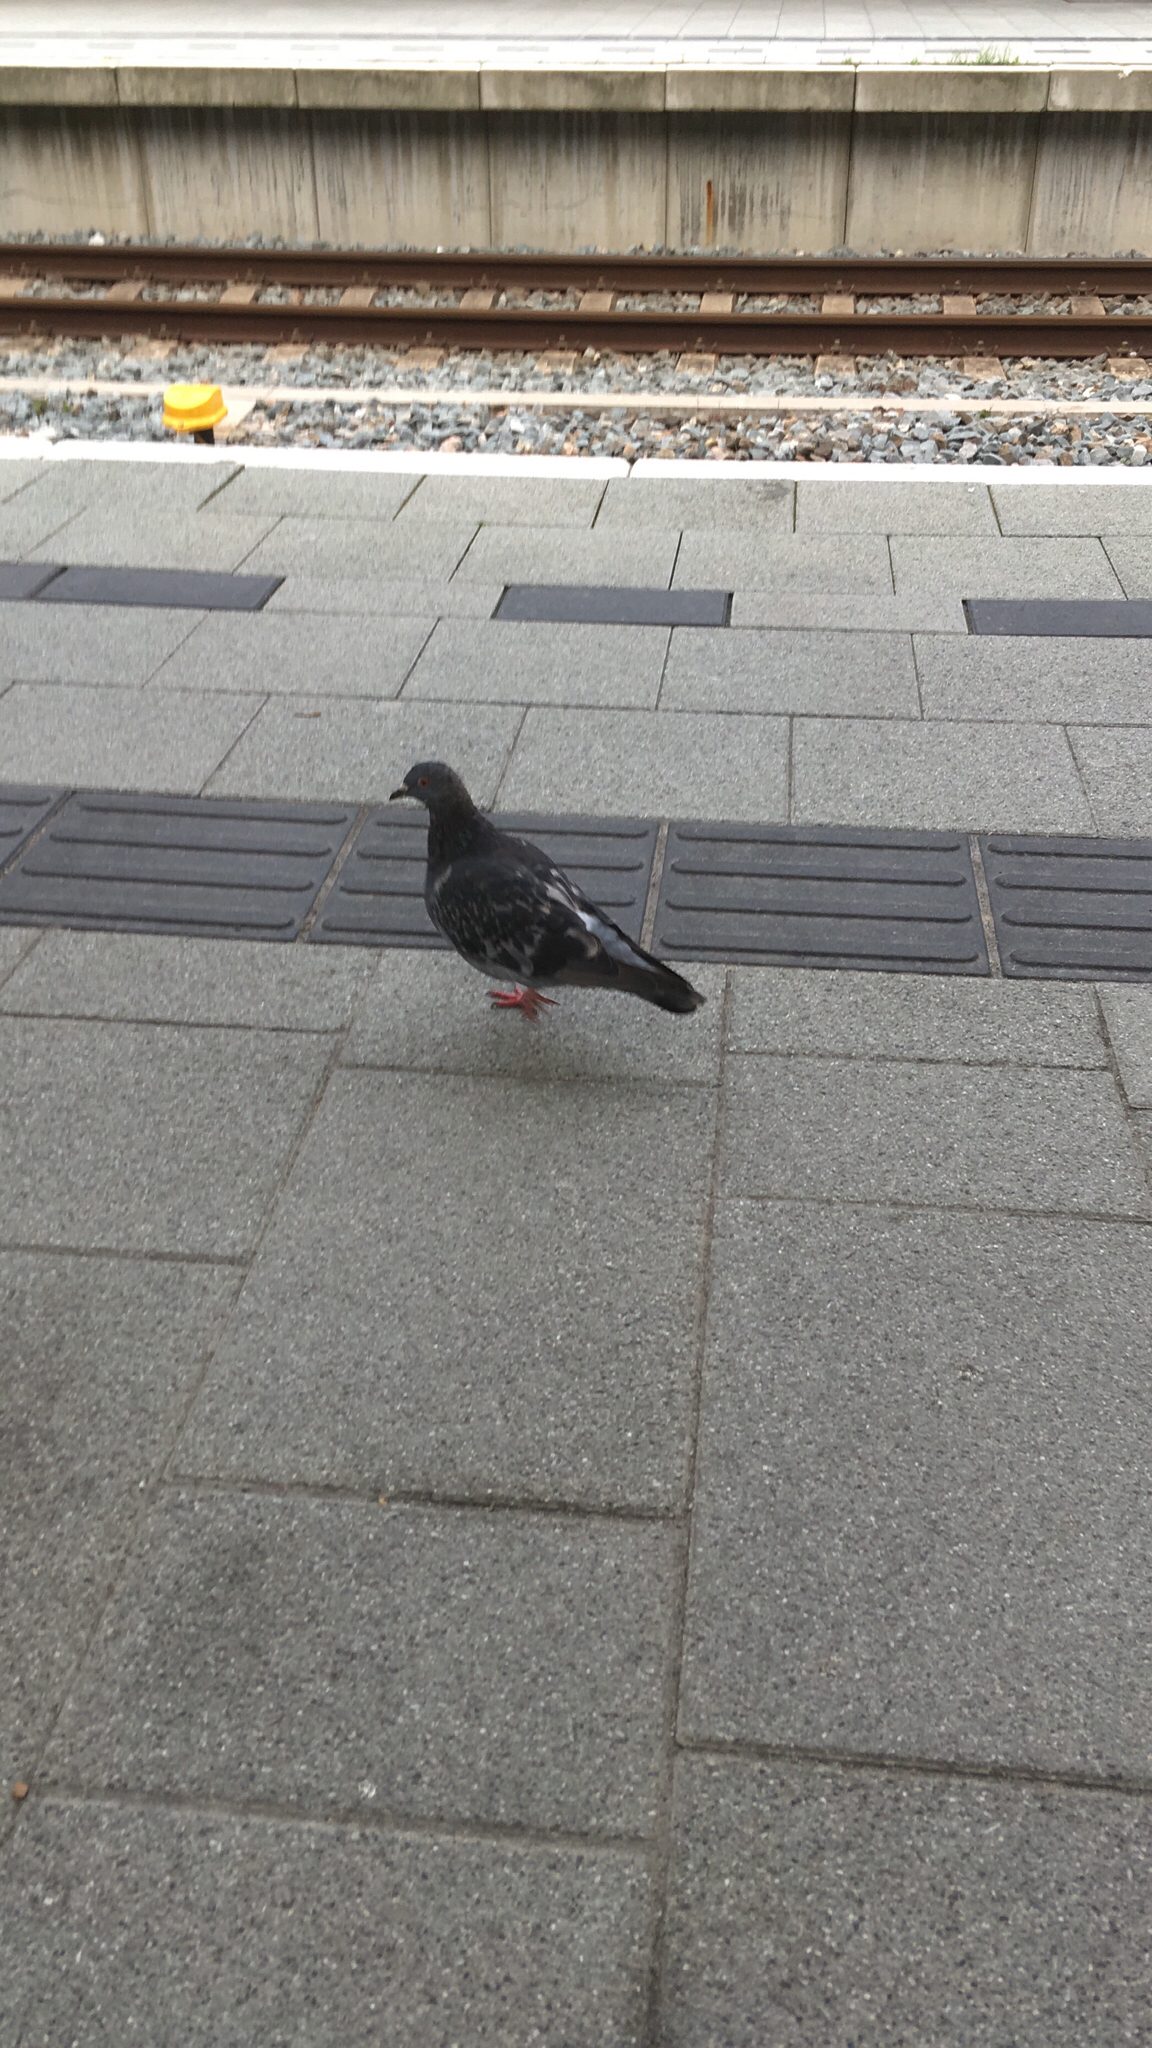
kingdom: Animalia
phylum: Chordata
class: Aves
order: Columbiformes
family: Columbidae
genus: Columba
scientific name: Columba livia
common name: Rock pigeon
